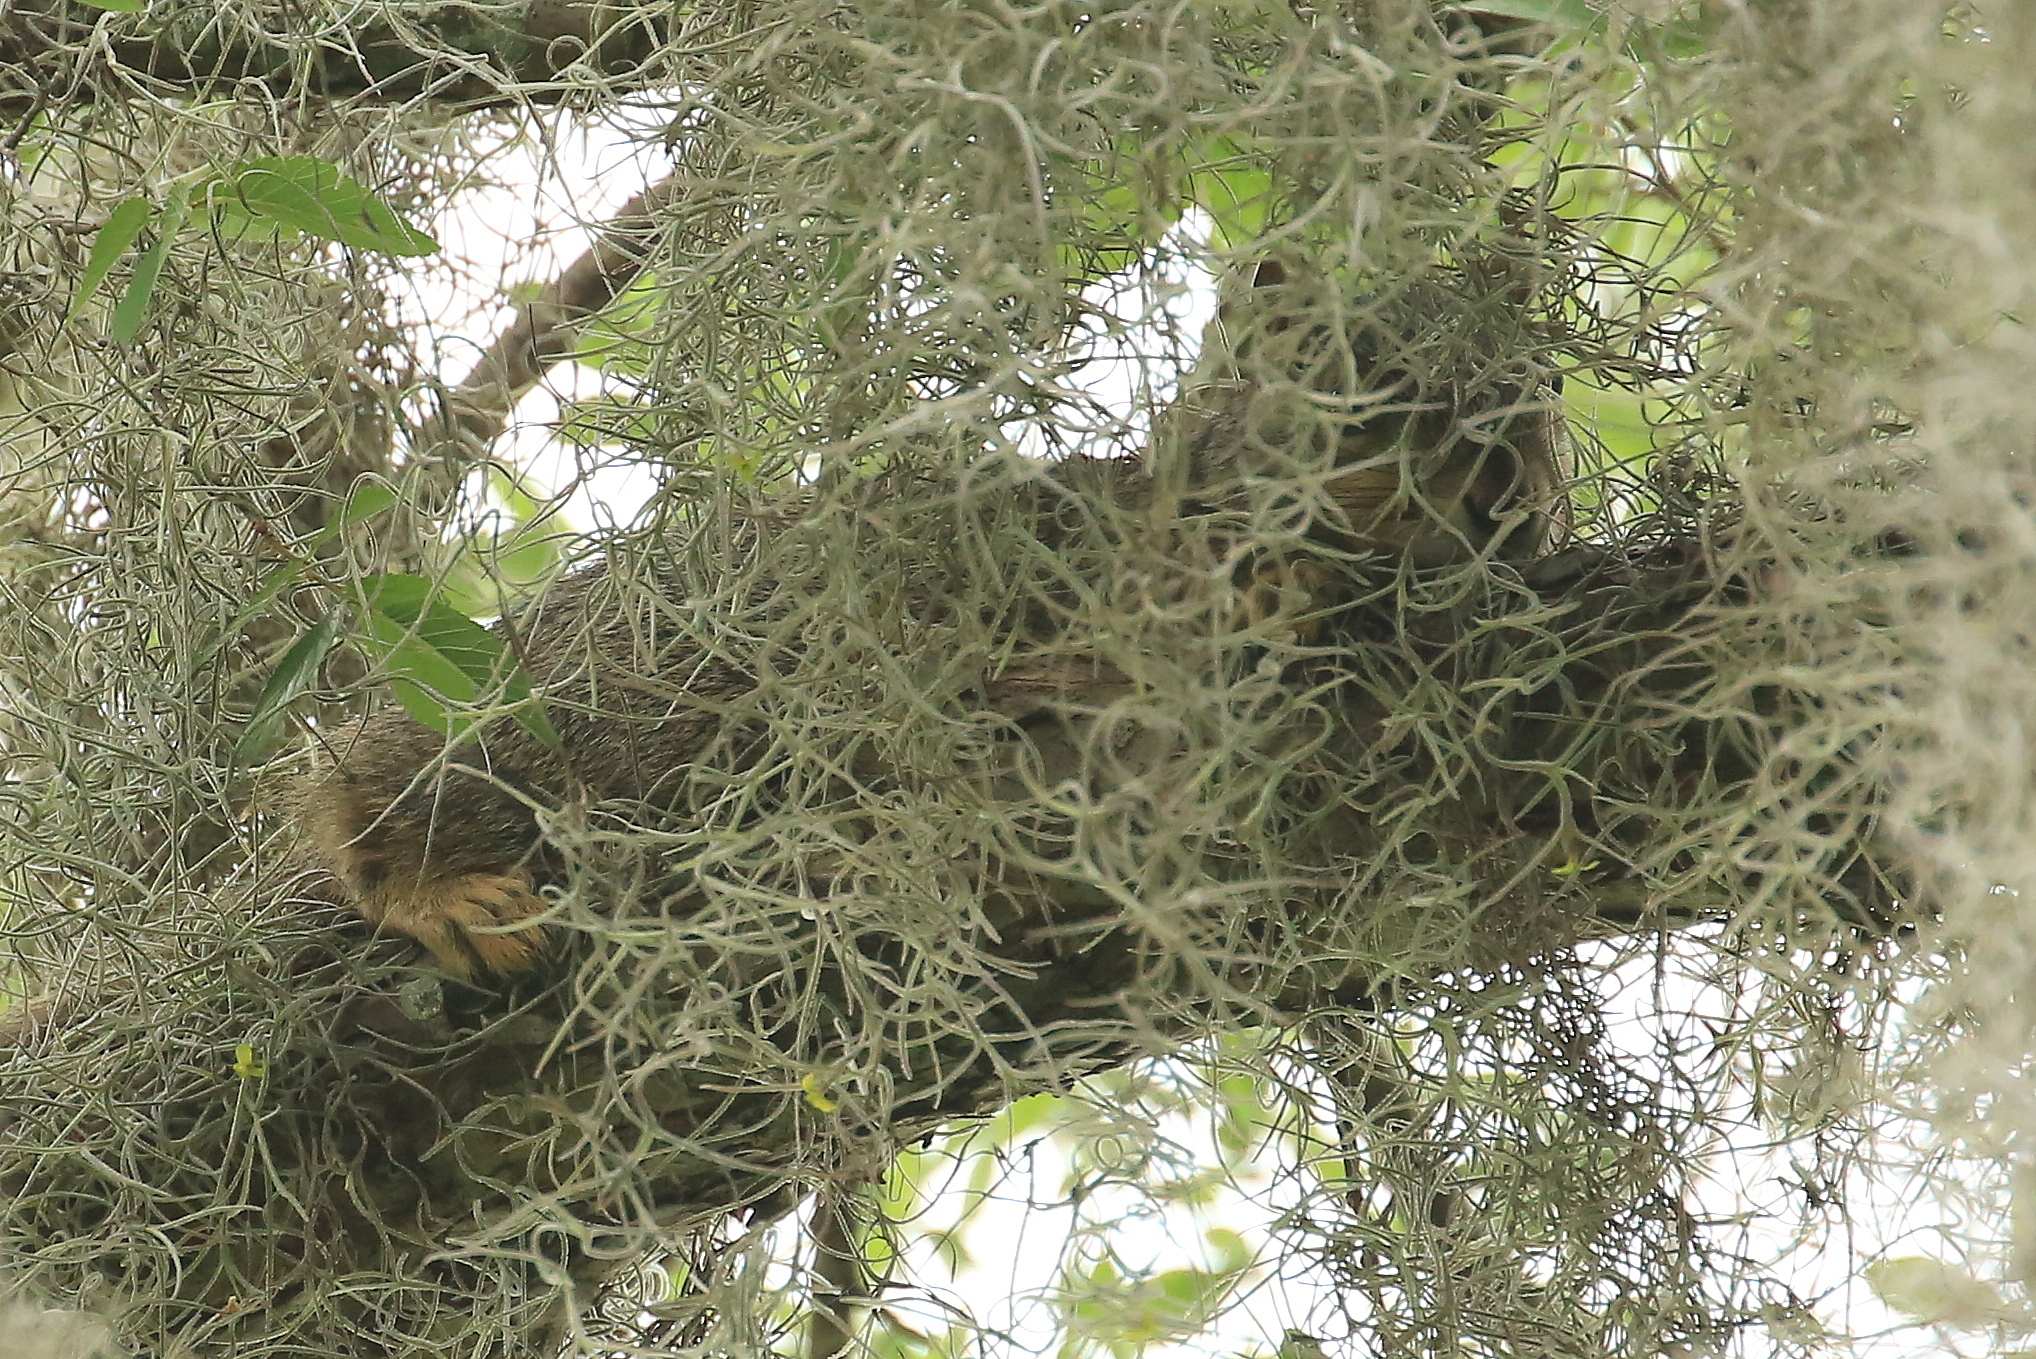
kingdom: Animalia
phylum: Chordata
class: Mammalia
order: Rodentia
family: Sciuridae
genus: Sciurus
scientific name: Sciurus niger
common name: Fox squirrel
